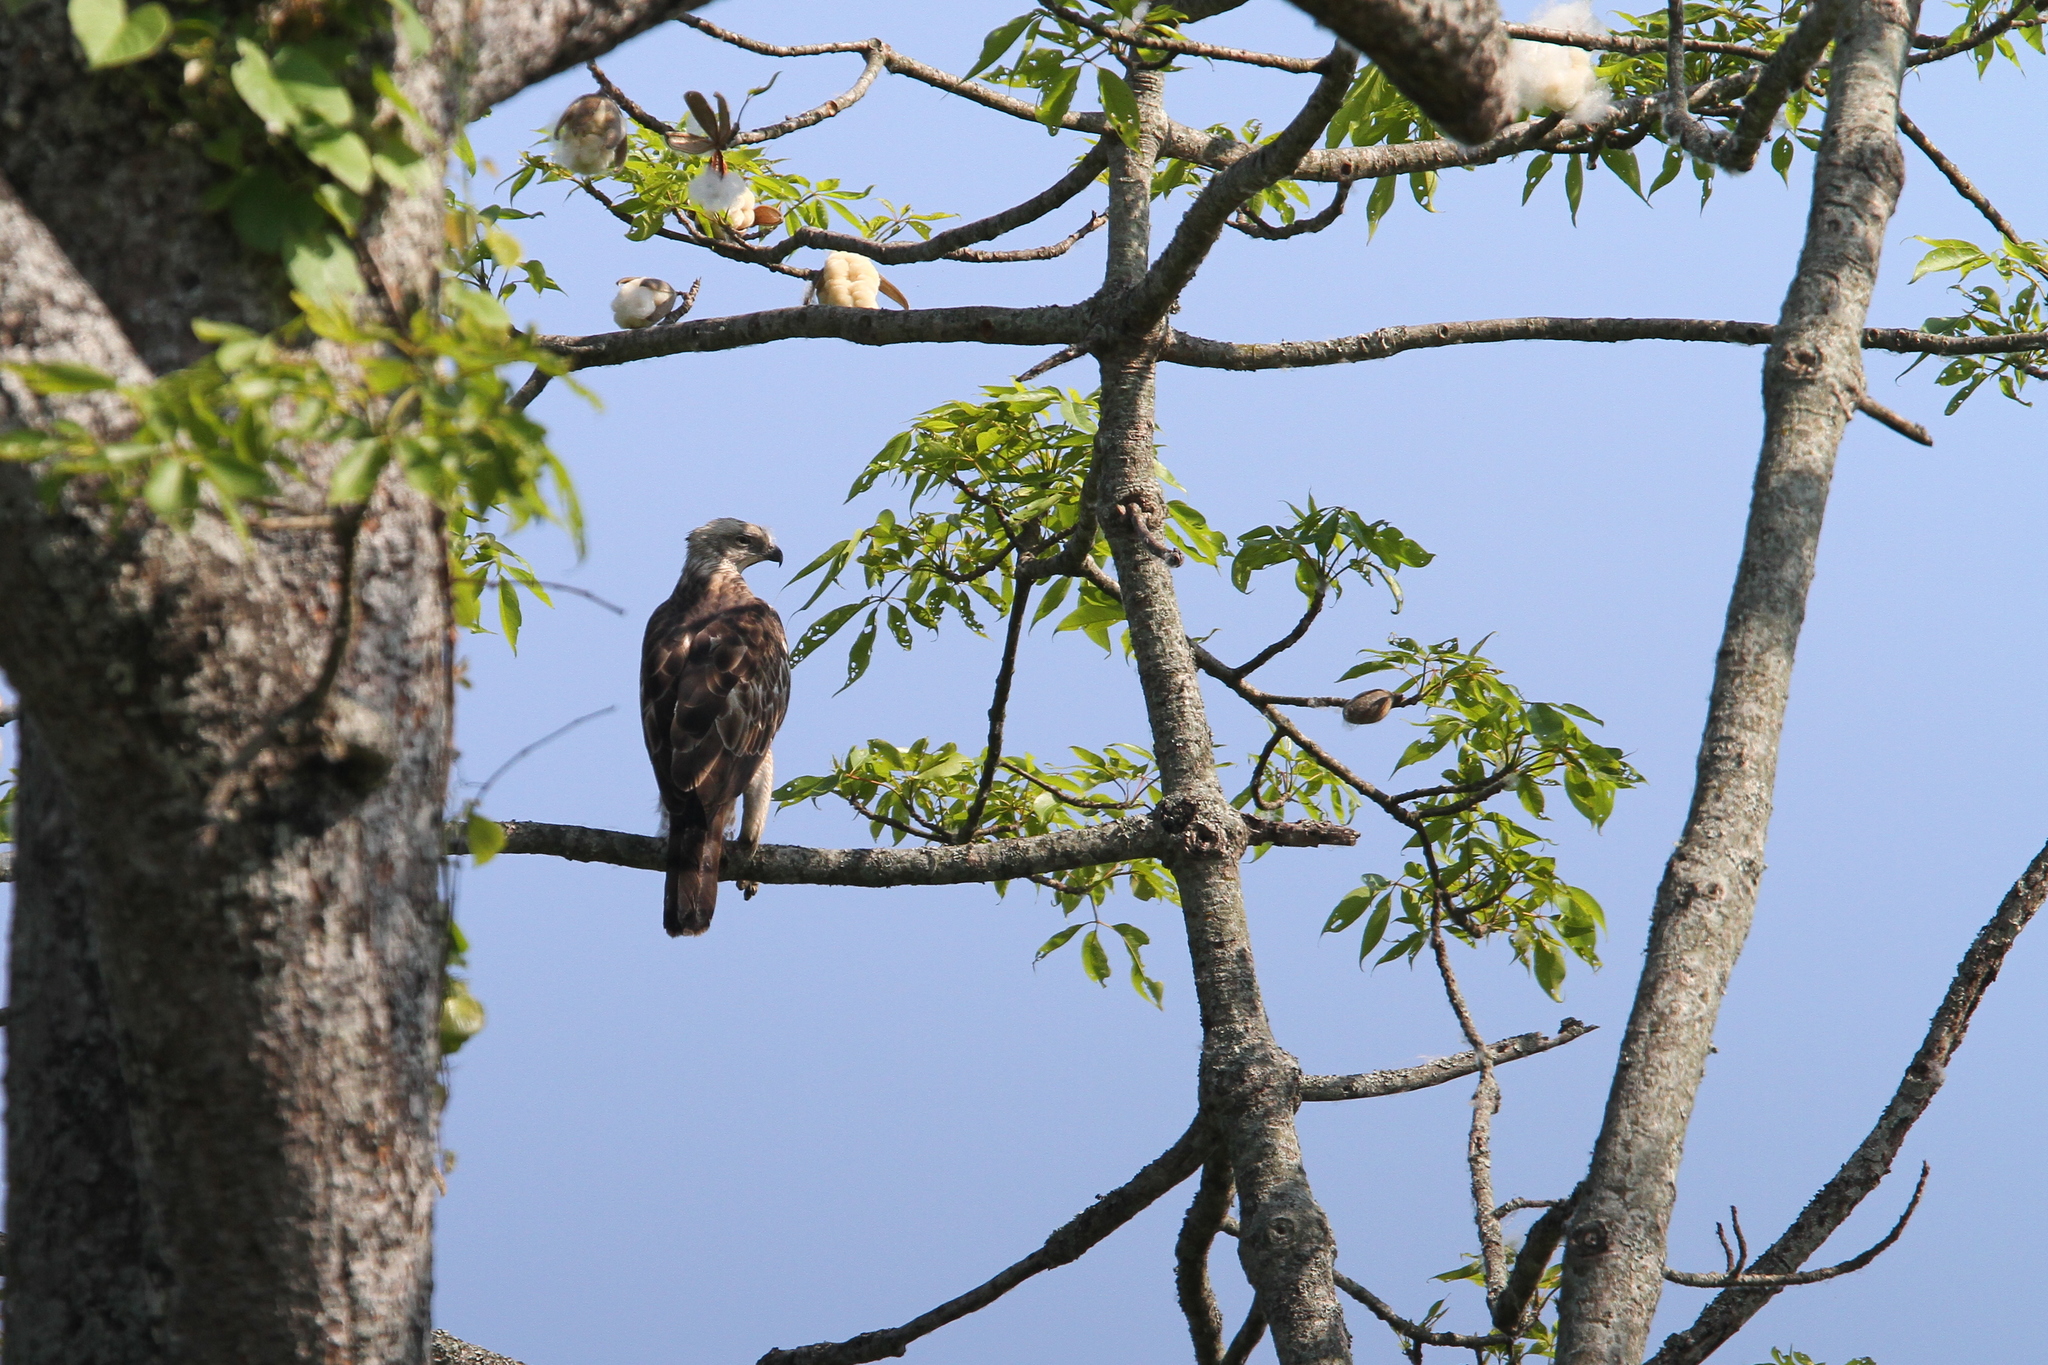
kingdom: Animalia
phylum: Chordata
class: Aves
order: Accipitriformes
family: Accipitridae
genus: Nisaetus
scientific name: Nisaetus cirrhatus
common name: Changeable hawk-eagle
